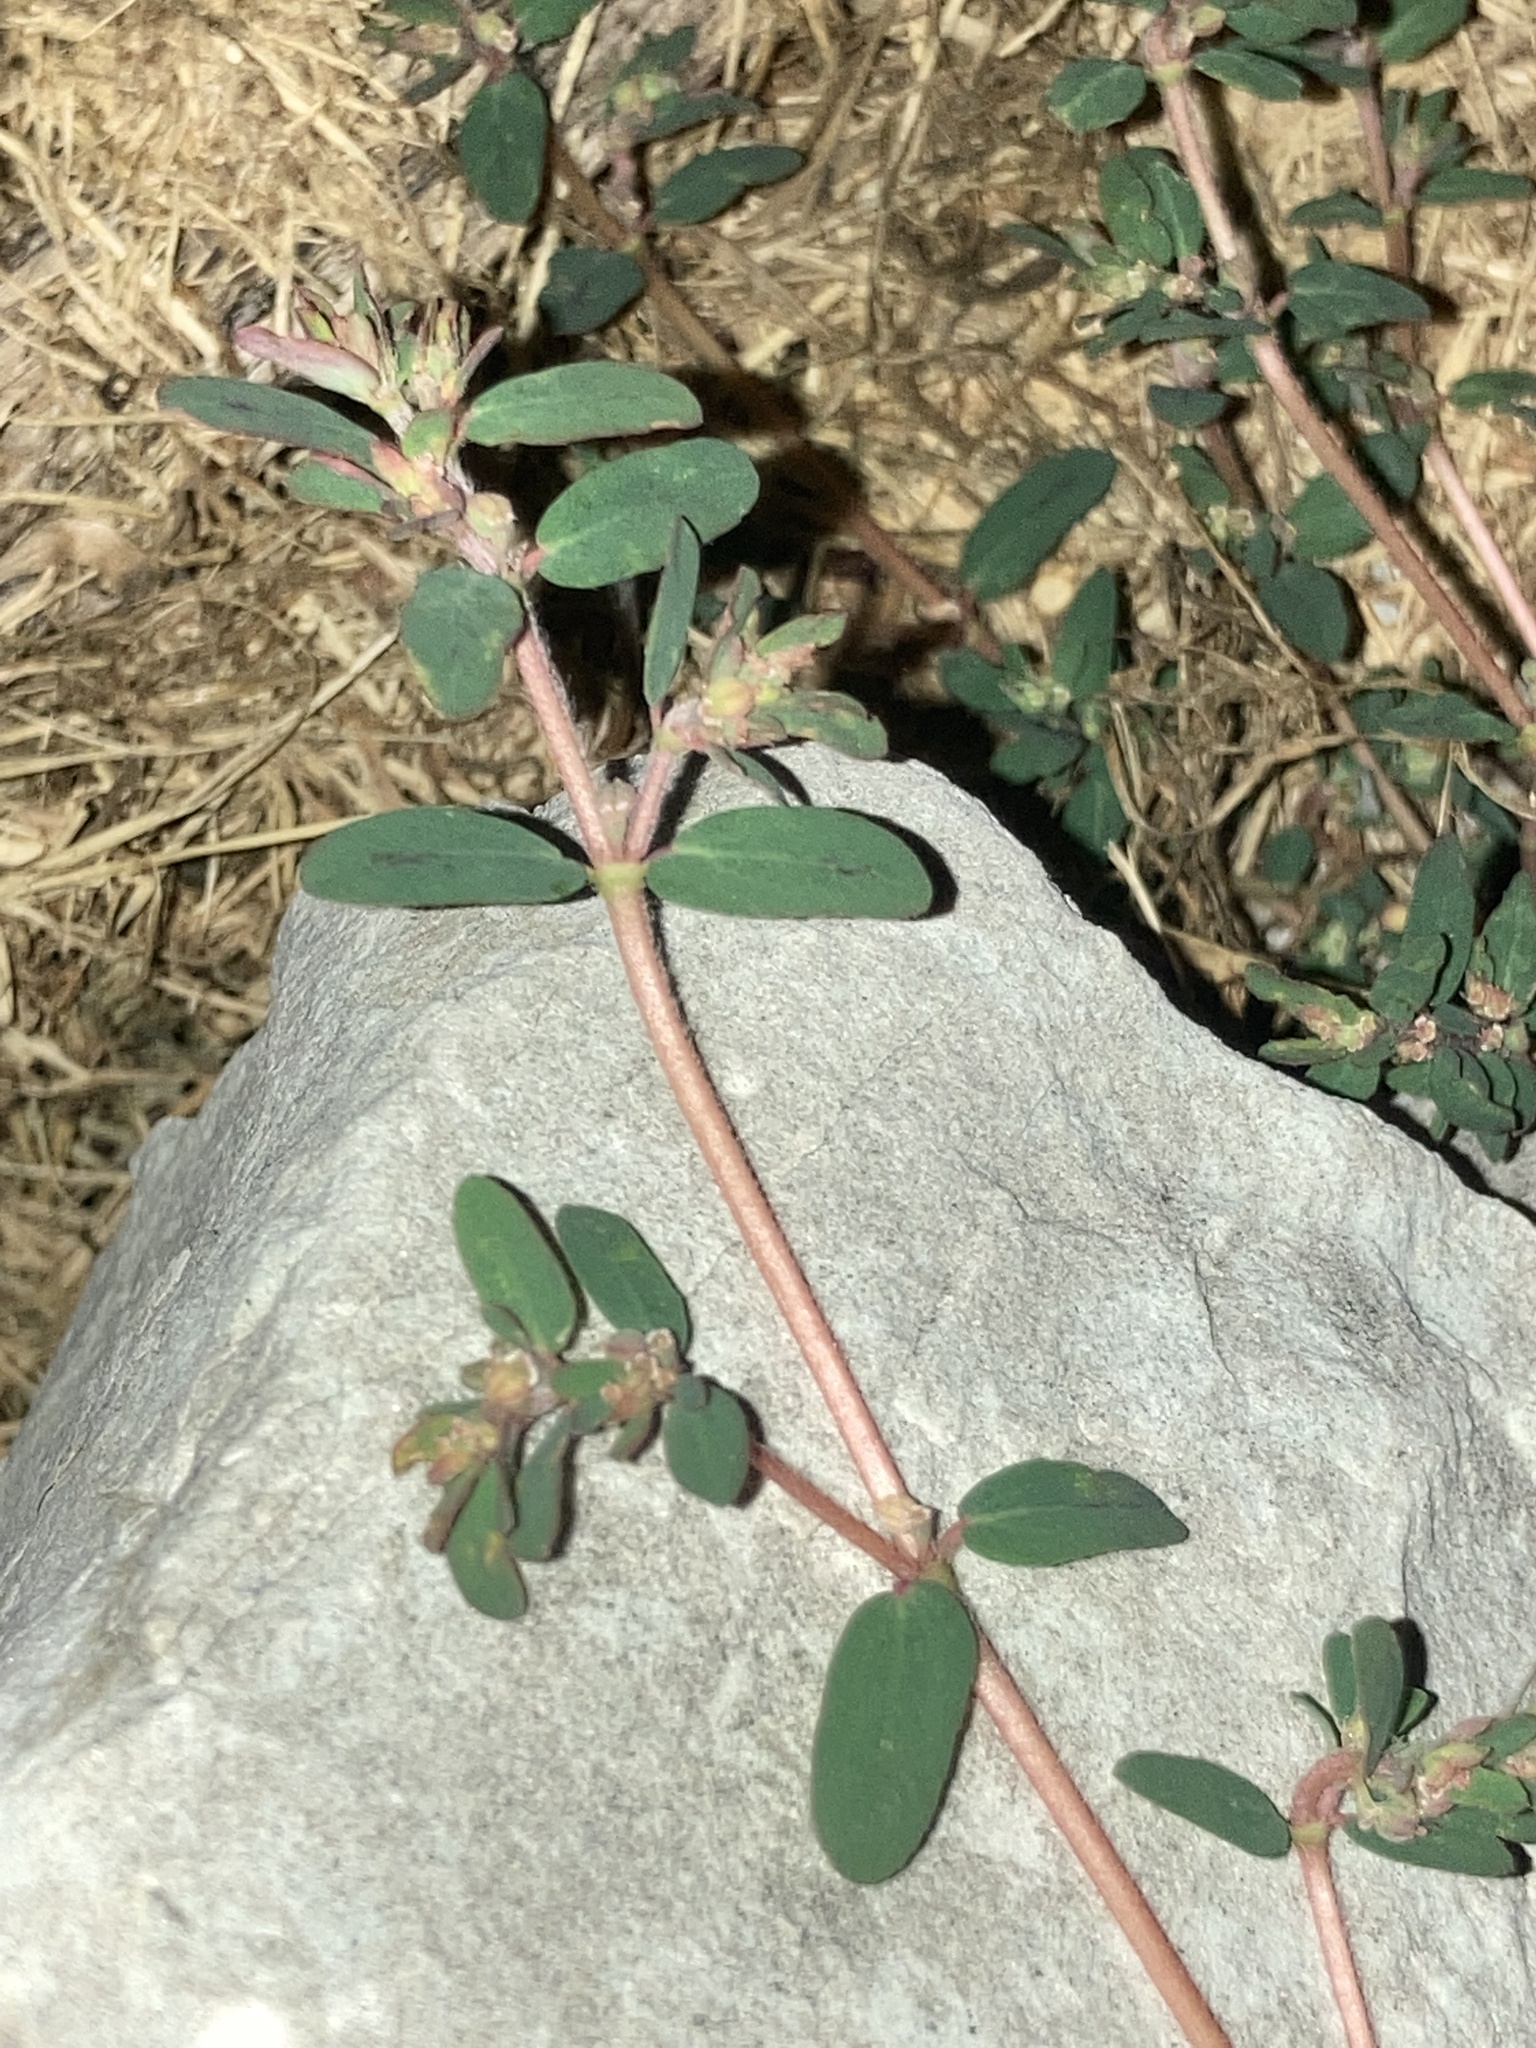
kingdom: Plantae
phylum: Tracheophyta
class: Magnoliopsida
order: Malpighiales
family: Euphorbiaceae
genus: Euphorbia
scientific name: Euphorbia maculata
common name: Spotted spurge
